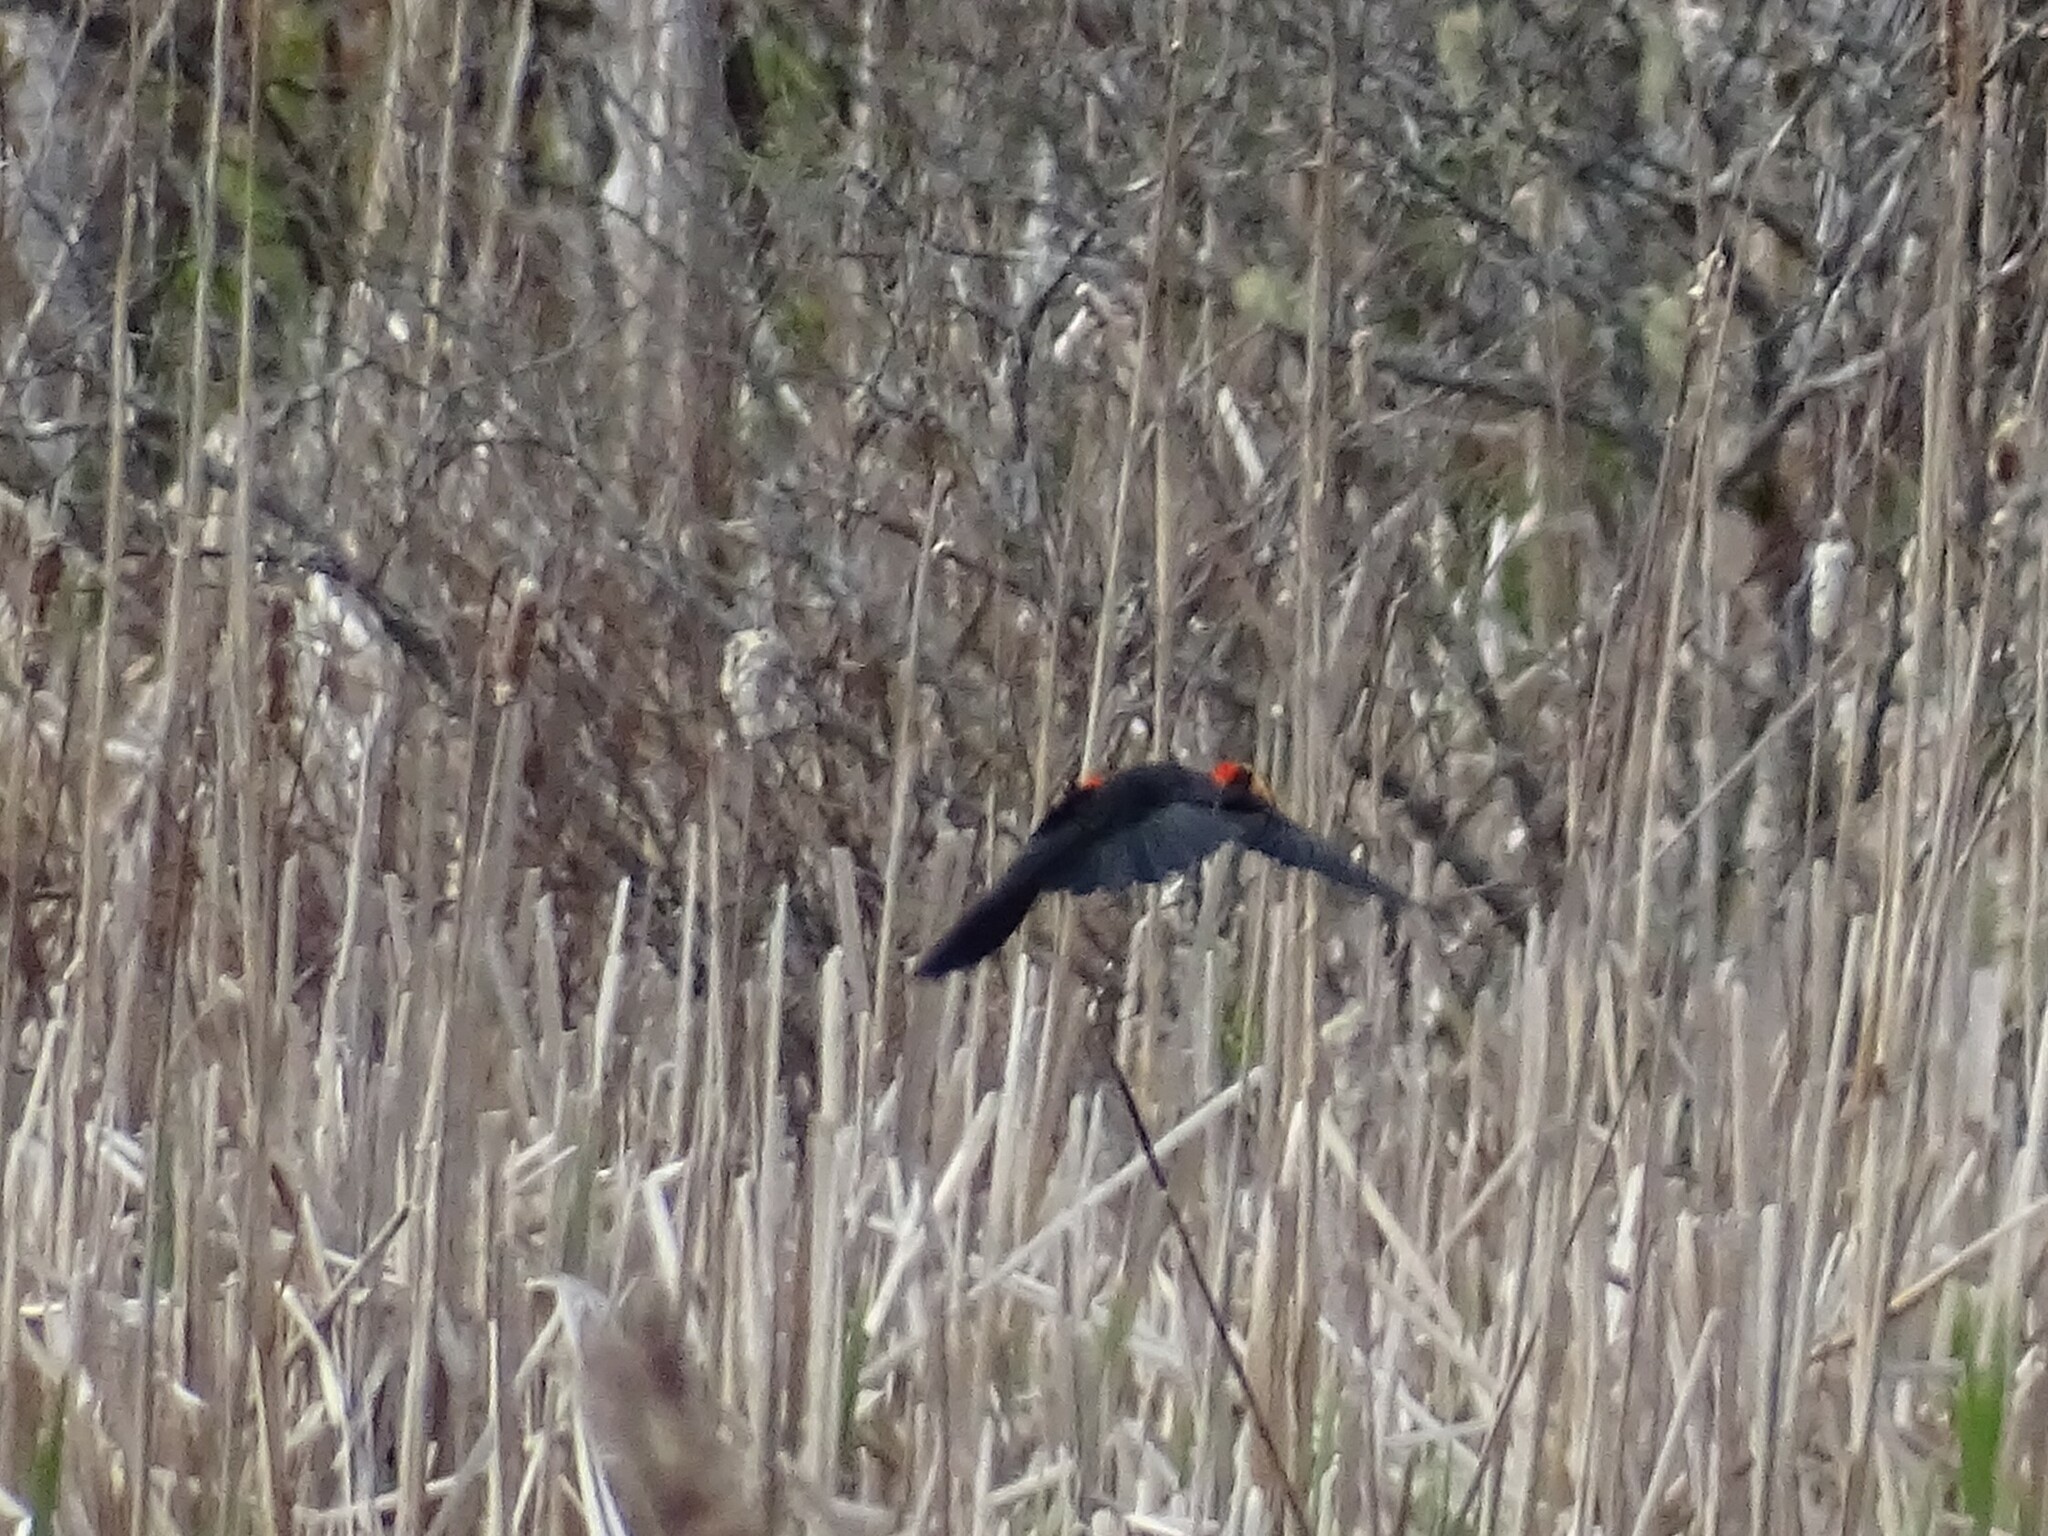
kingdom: Animalia
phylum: Chordata
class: Aves
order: Passeriformes
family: Icteridae
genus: Agelaius
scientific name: Agelaius phoeniceus
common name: Red-winged blackbird
